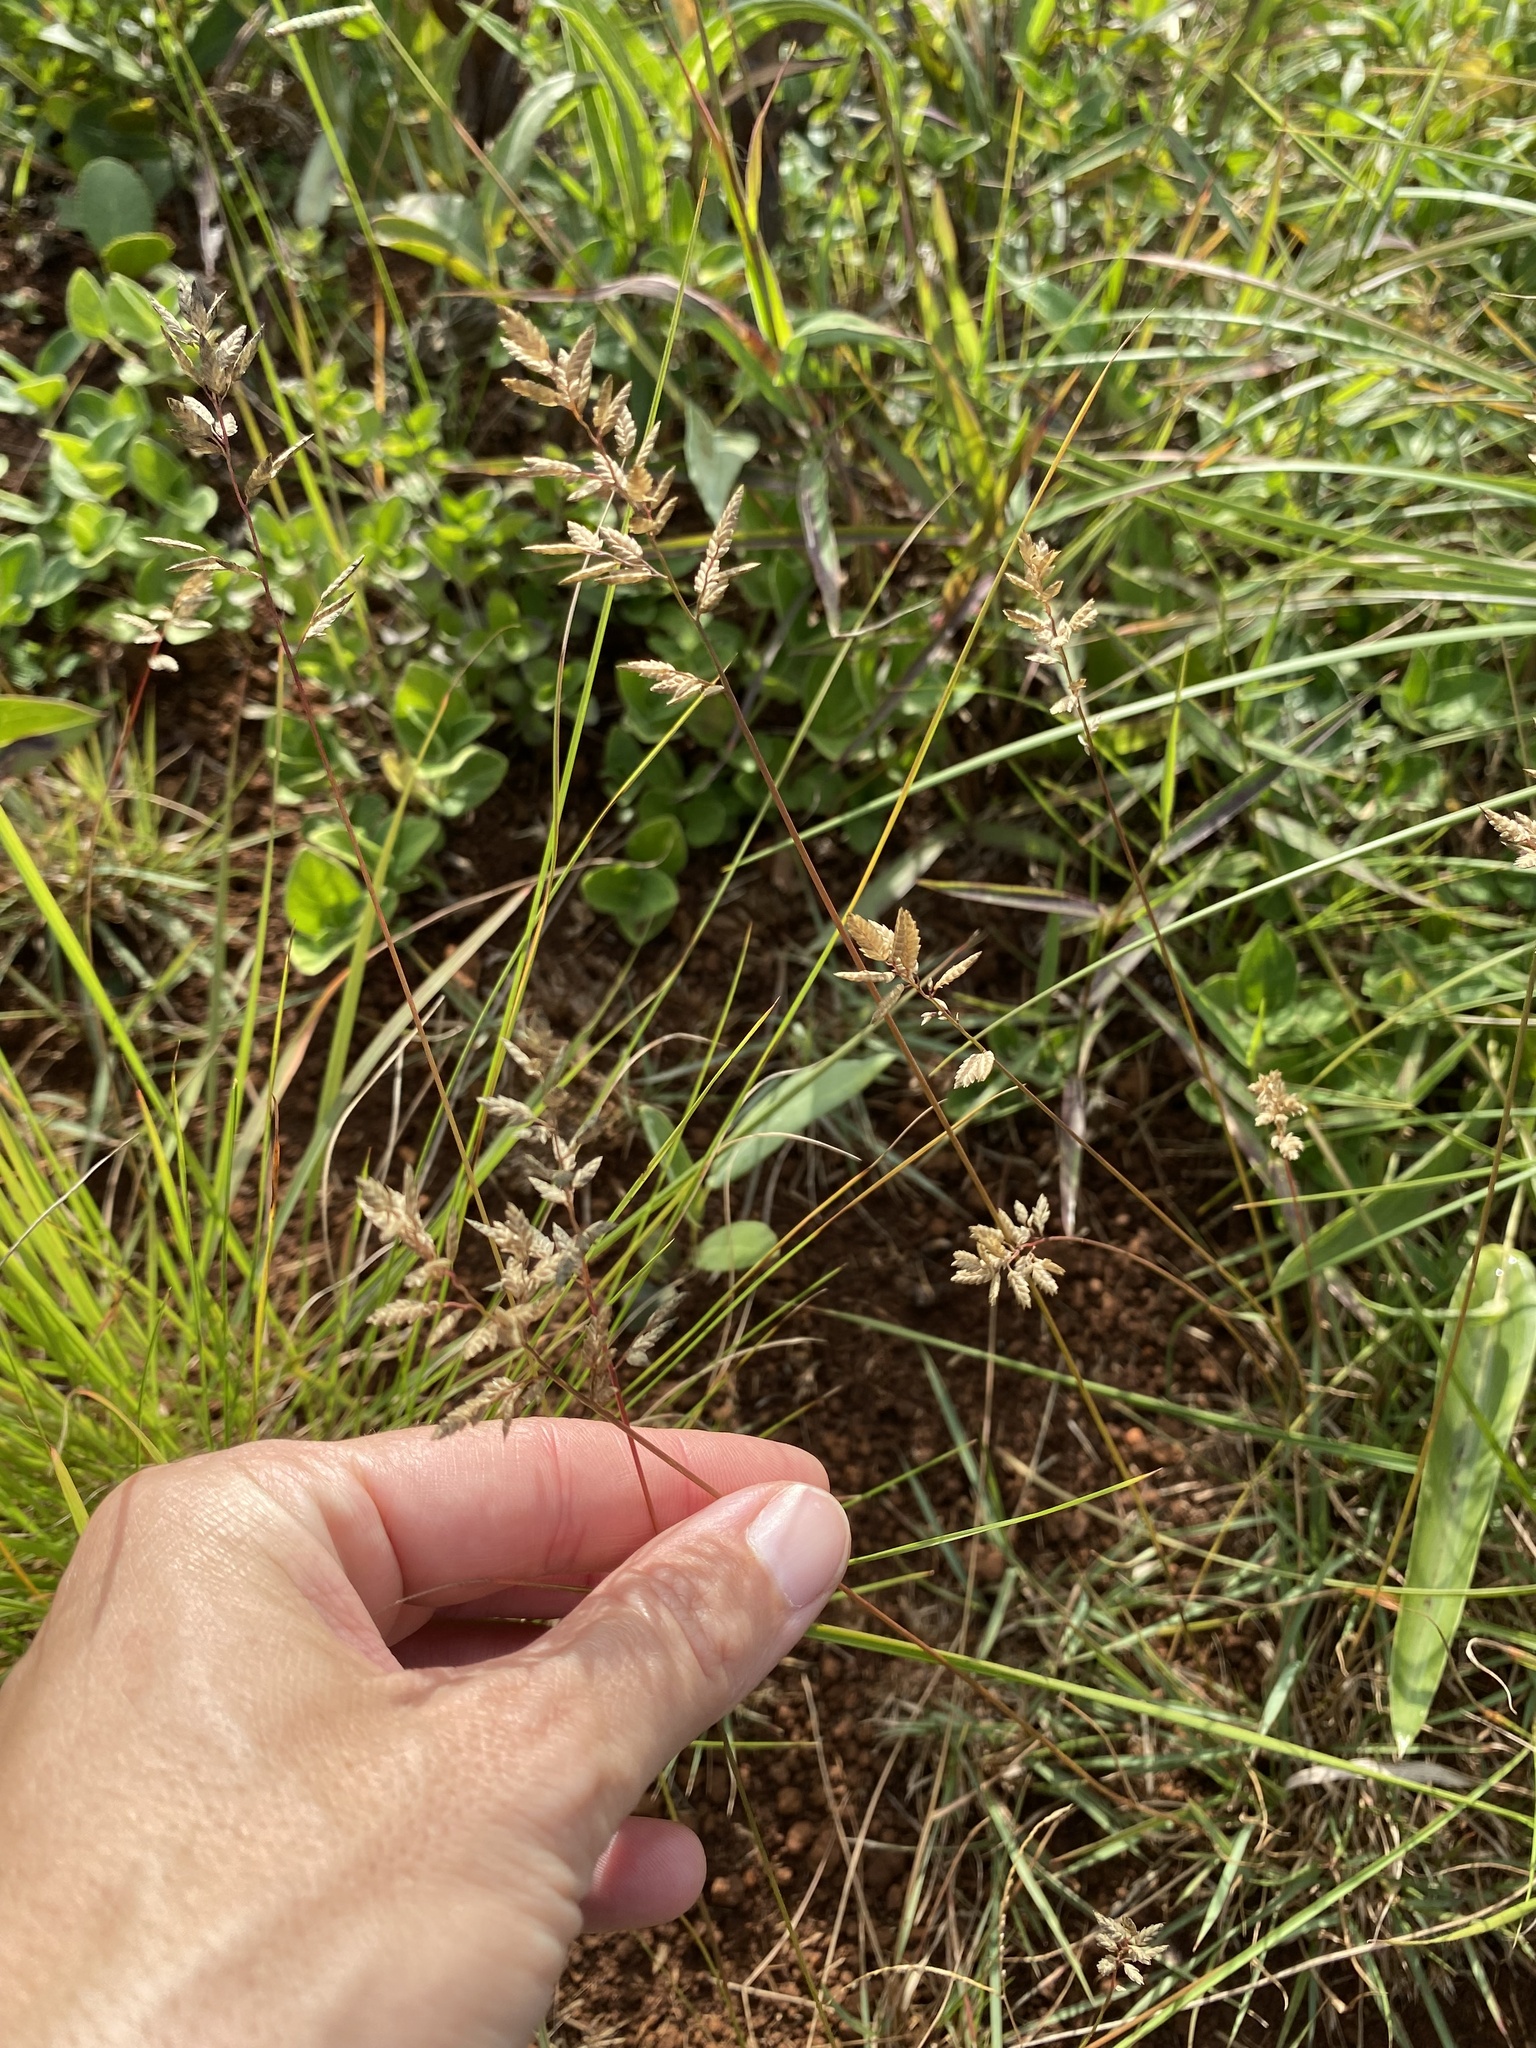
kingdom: Plantae
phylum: Tracheophyta
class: Liliopsida
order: Poales
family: Poaceae
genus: Eragrostis
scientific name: Eragrostis racemosa
